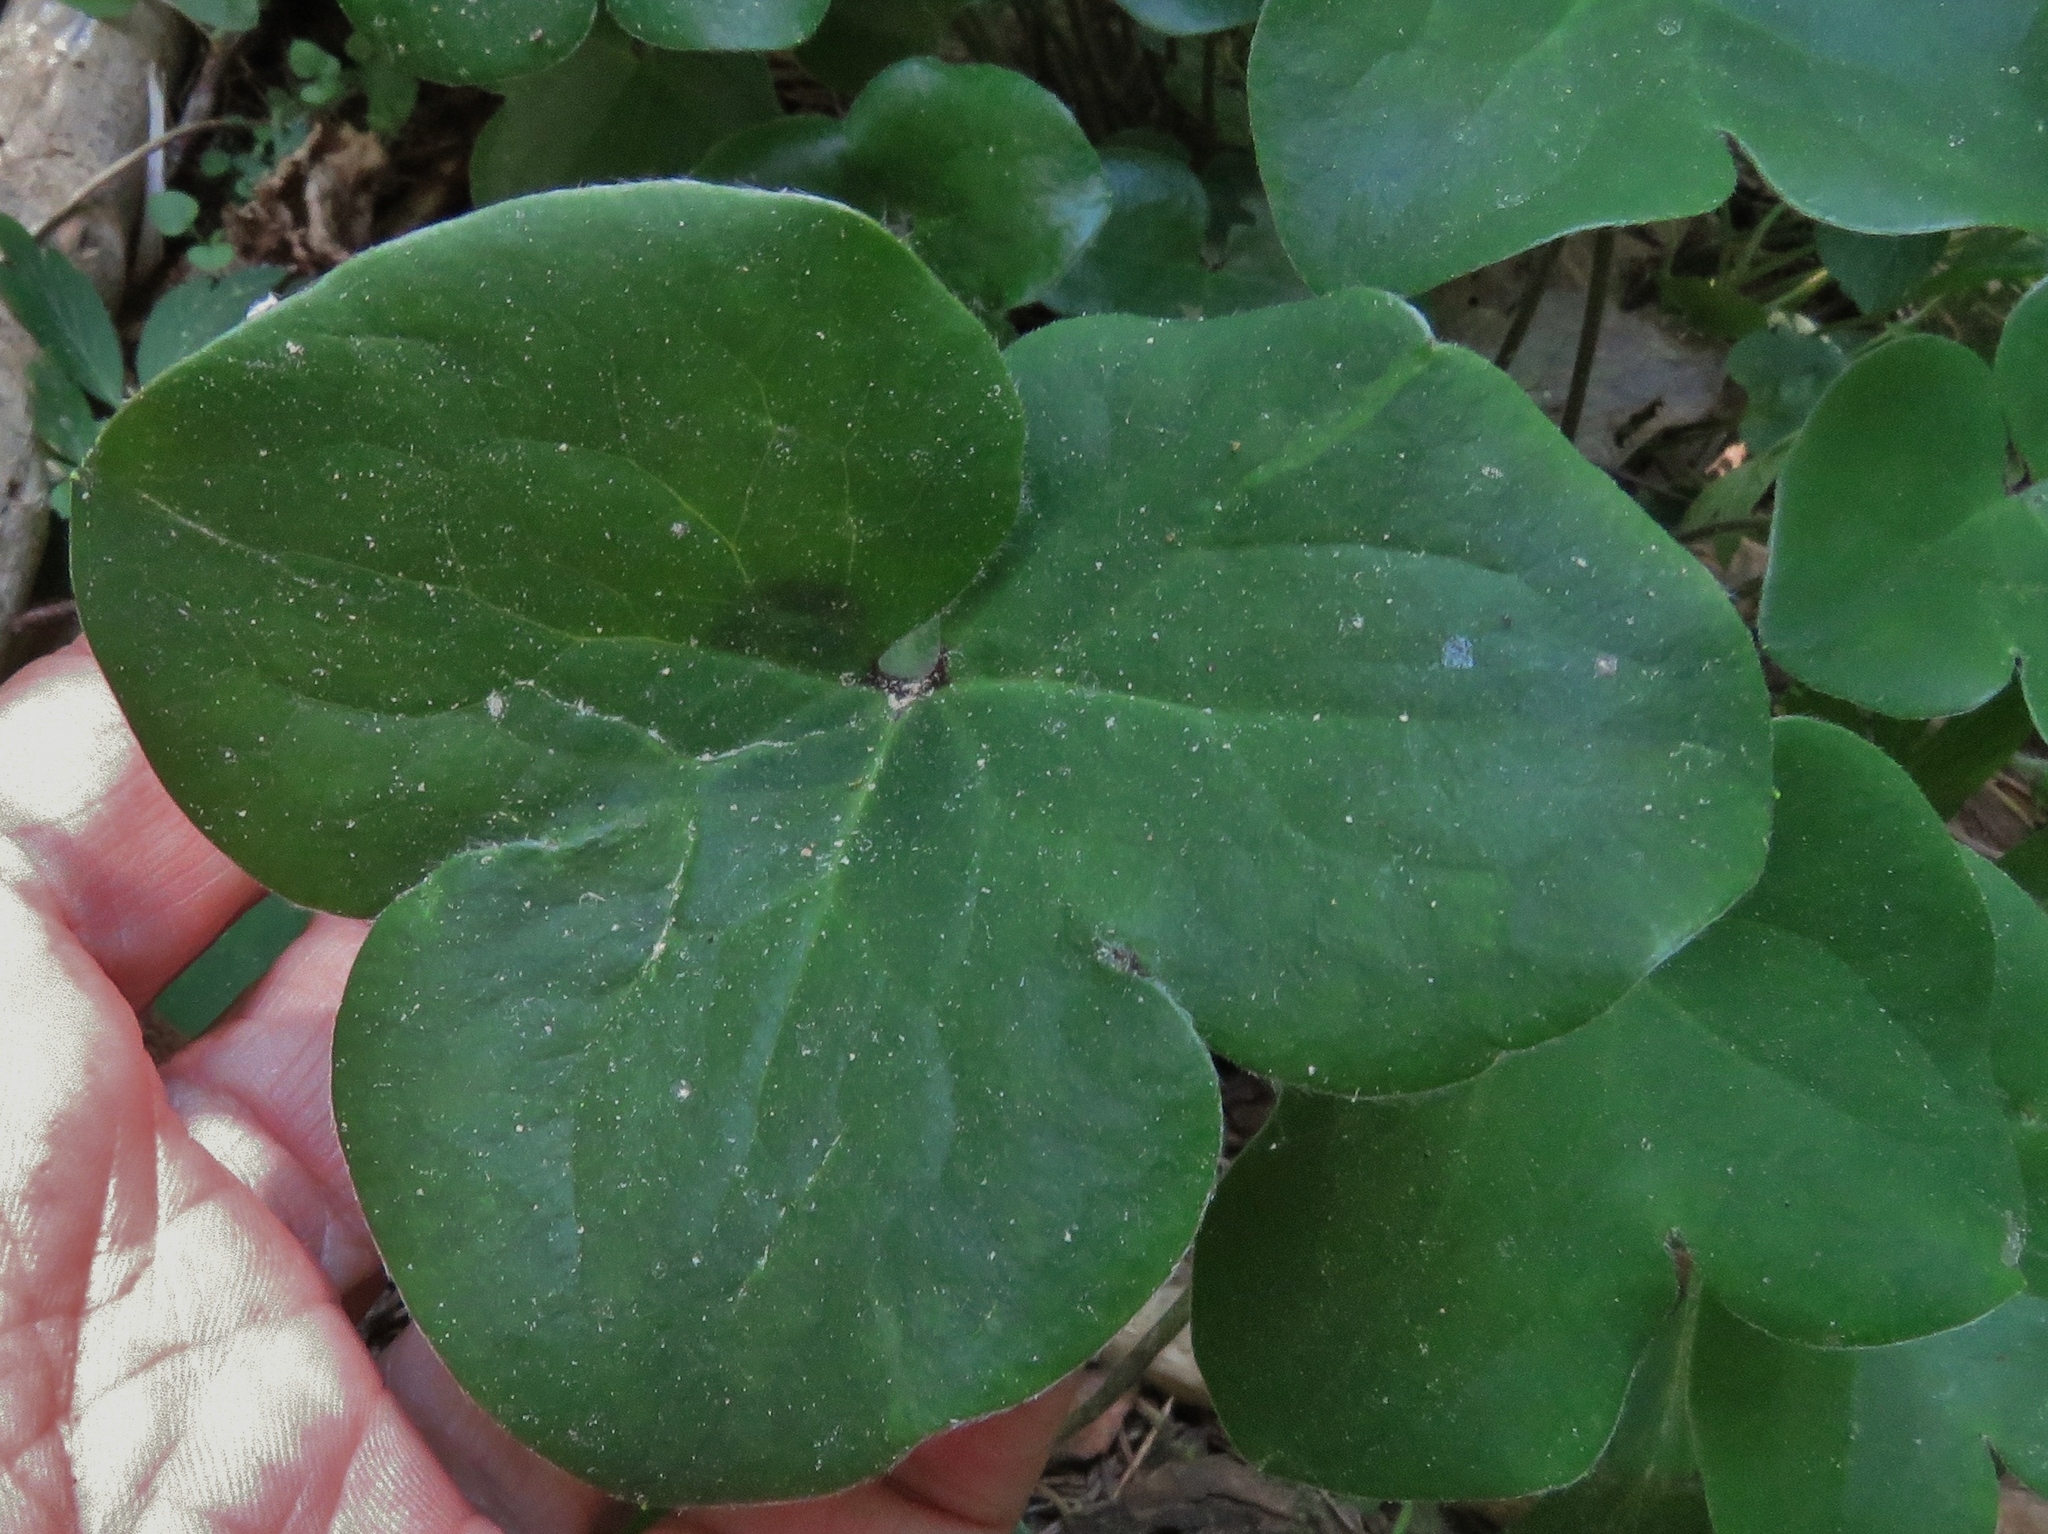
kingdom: Plantae
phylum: Tracheophyta
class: Magnoliopsida
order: Ranunculales
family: Ranunculaceae
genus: Hepatica
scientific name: Hepatica nobilis
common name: Liverleaf
